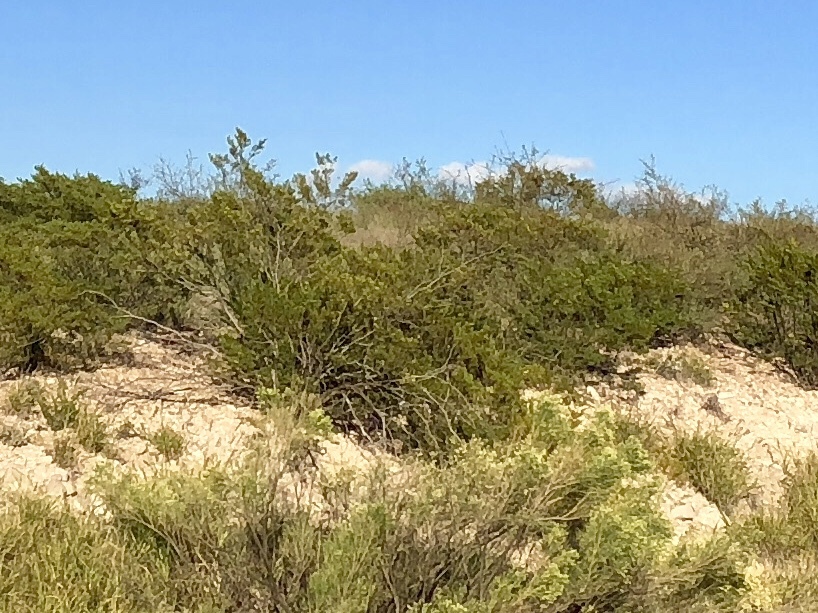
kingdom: Plantae
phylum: Tracheophyta
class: Magnoliopsida
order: Zygophyllales
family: Zygophyllaceae
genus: Larrea
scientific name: Larrea tridentata
